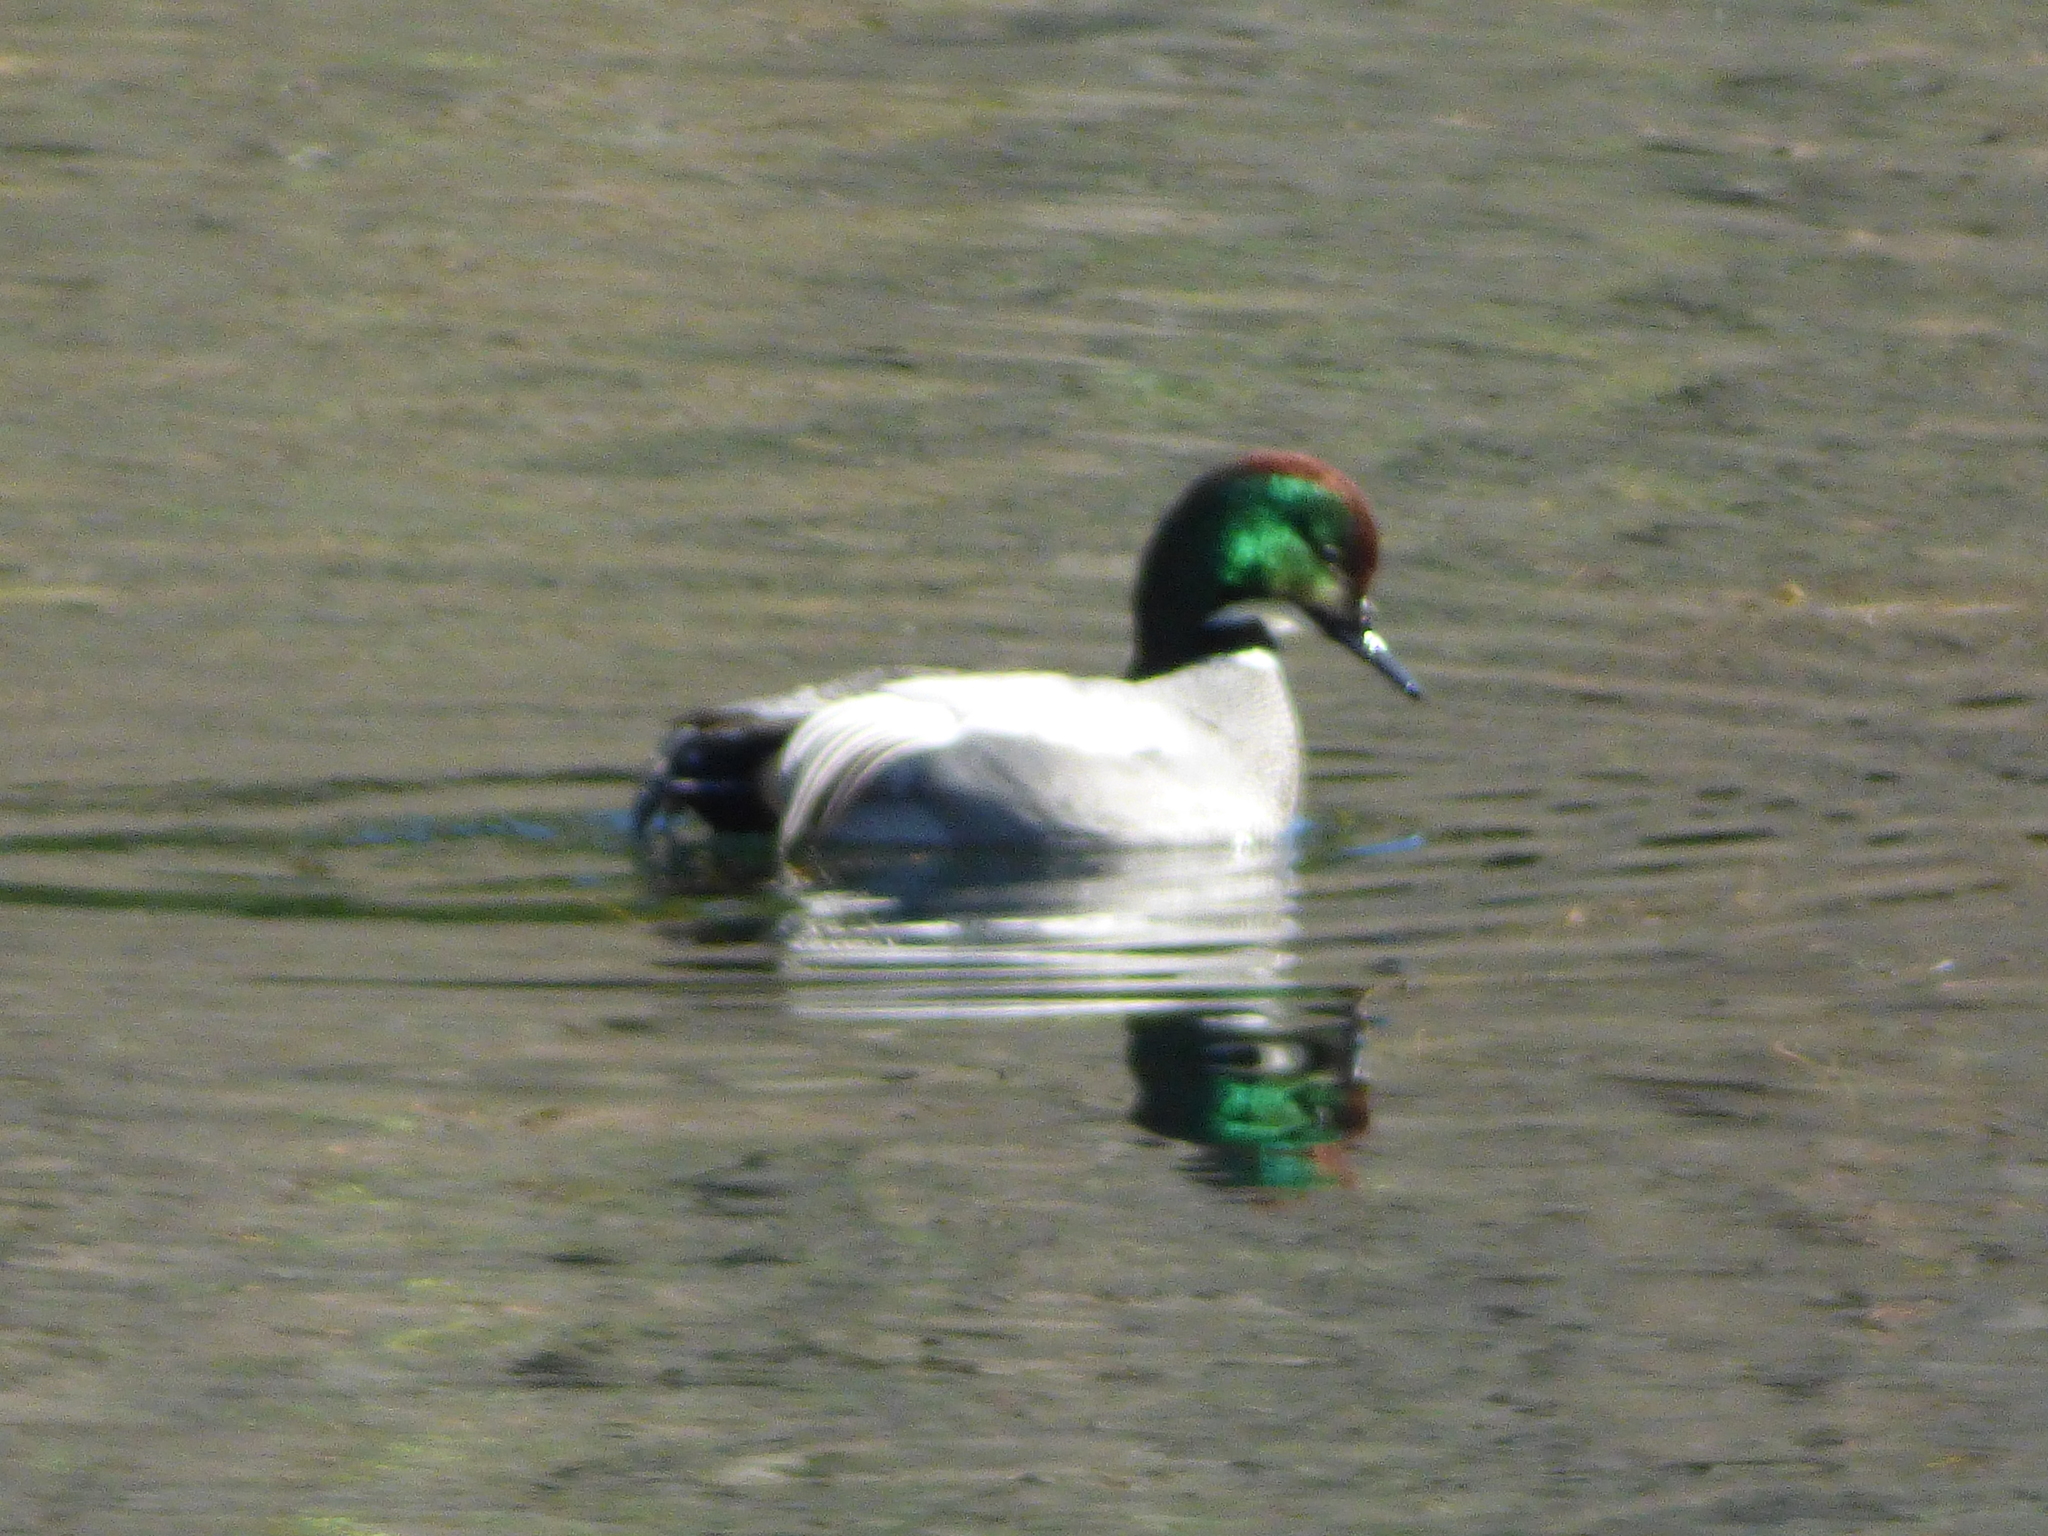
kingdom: Animalia
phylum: Chordata
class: Aves
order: Anseriformes
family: Anatidae
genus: Mareca
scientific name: Mareca falcata
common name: Falcated duck
